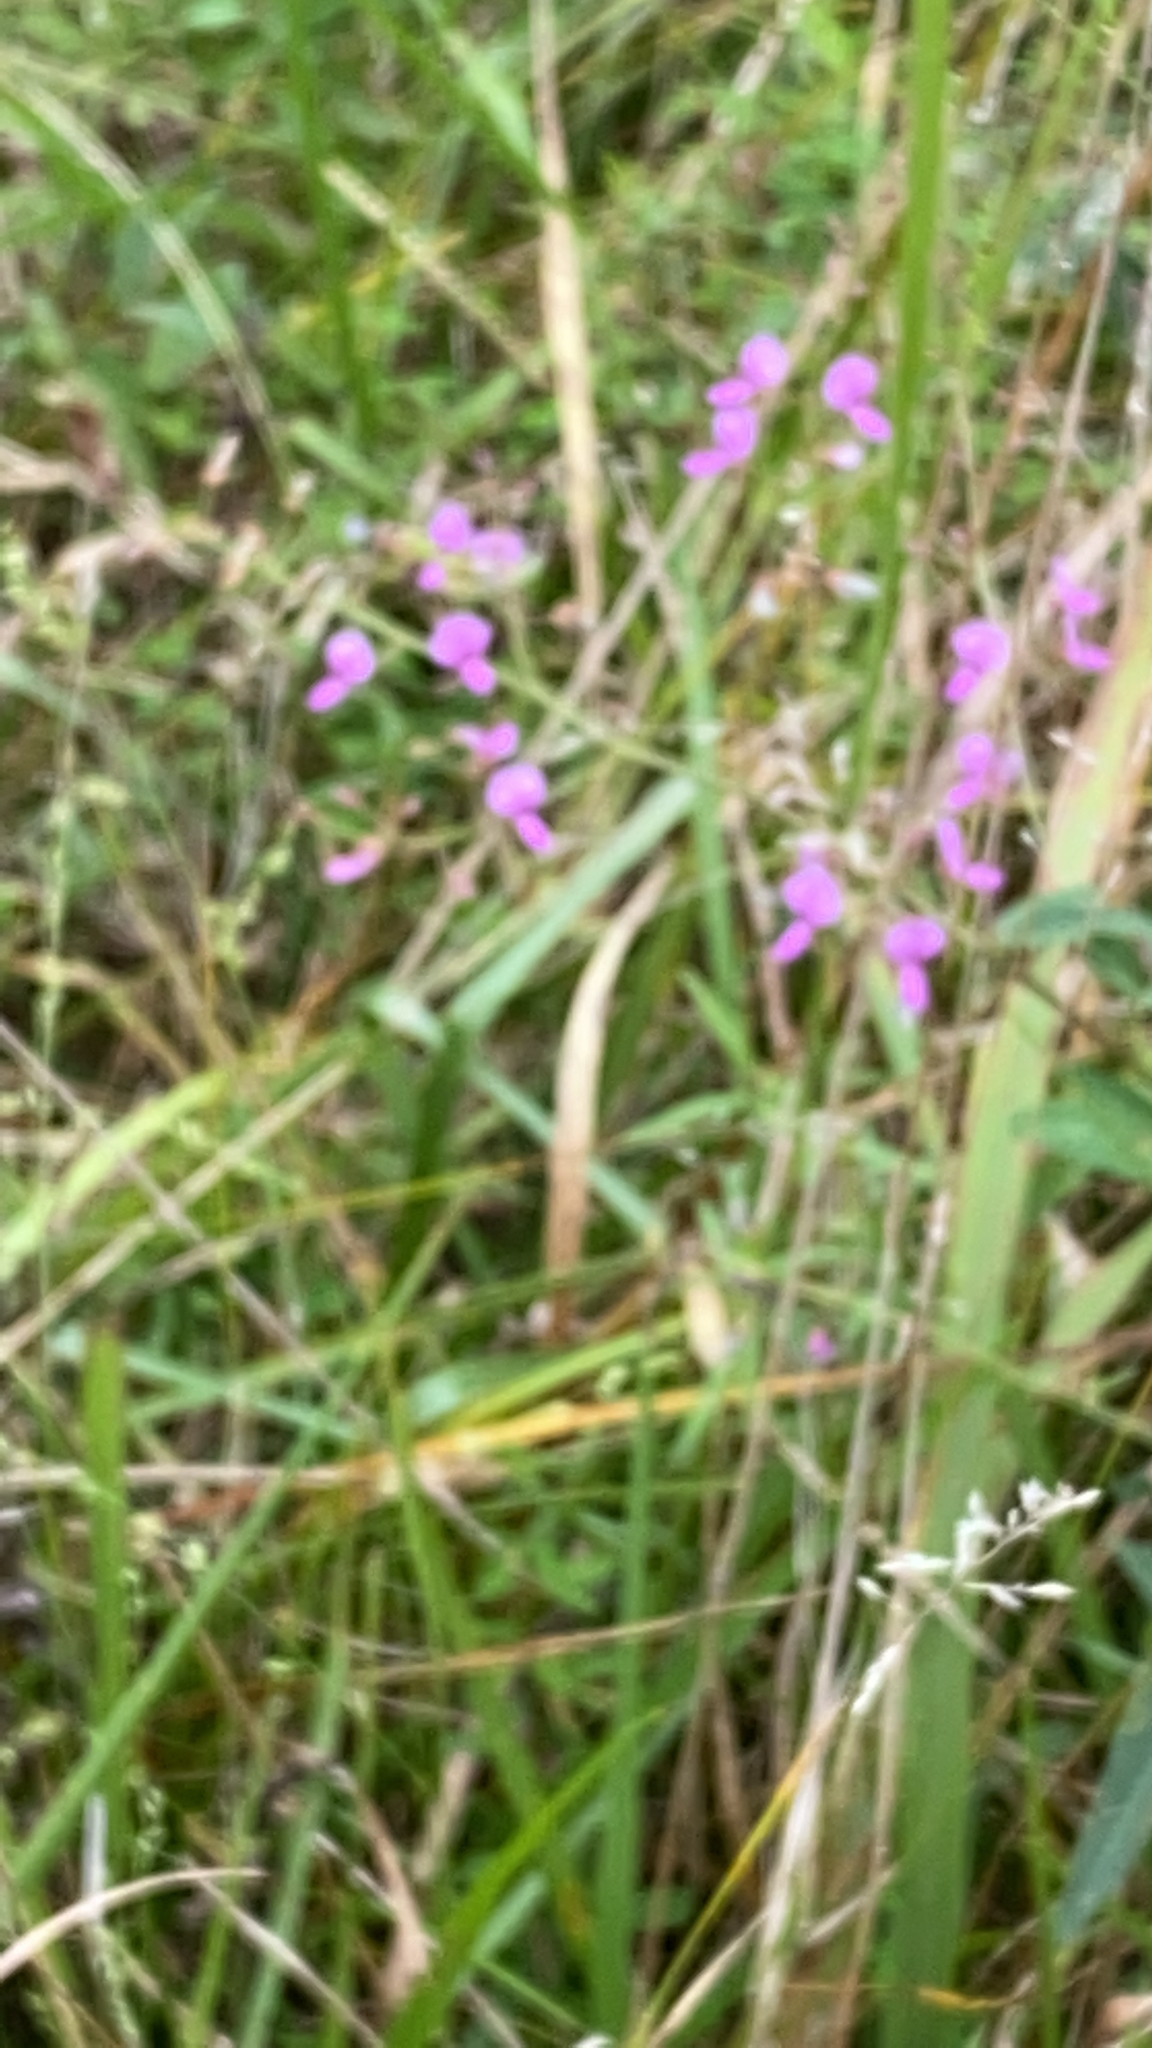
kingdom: Plantae
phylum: Tracheophyta
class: Magnoliopsida
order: Fabales
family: Fabaceae
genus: Desmodium
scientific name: Desmodium
